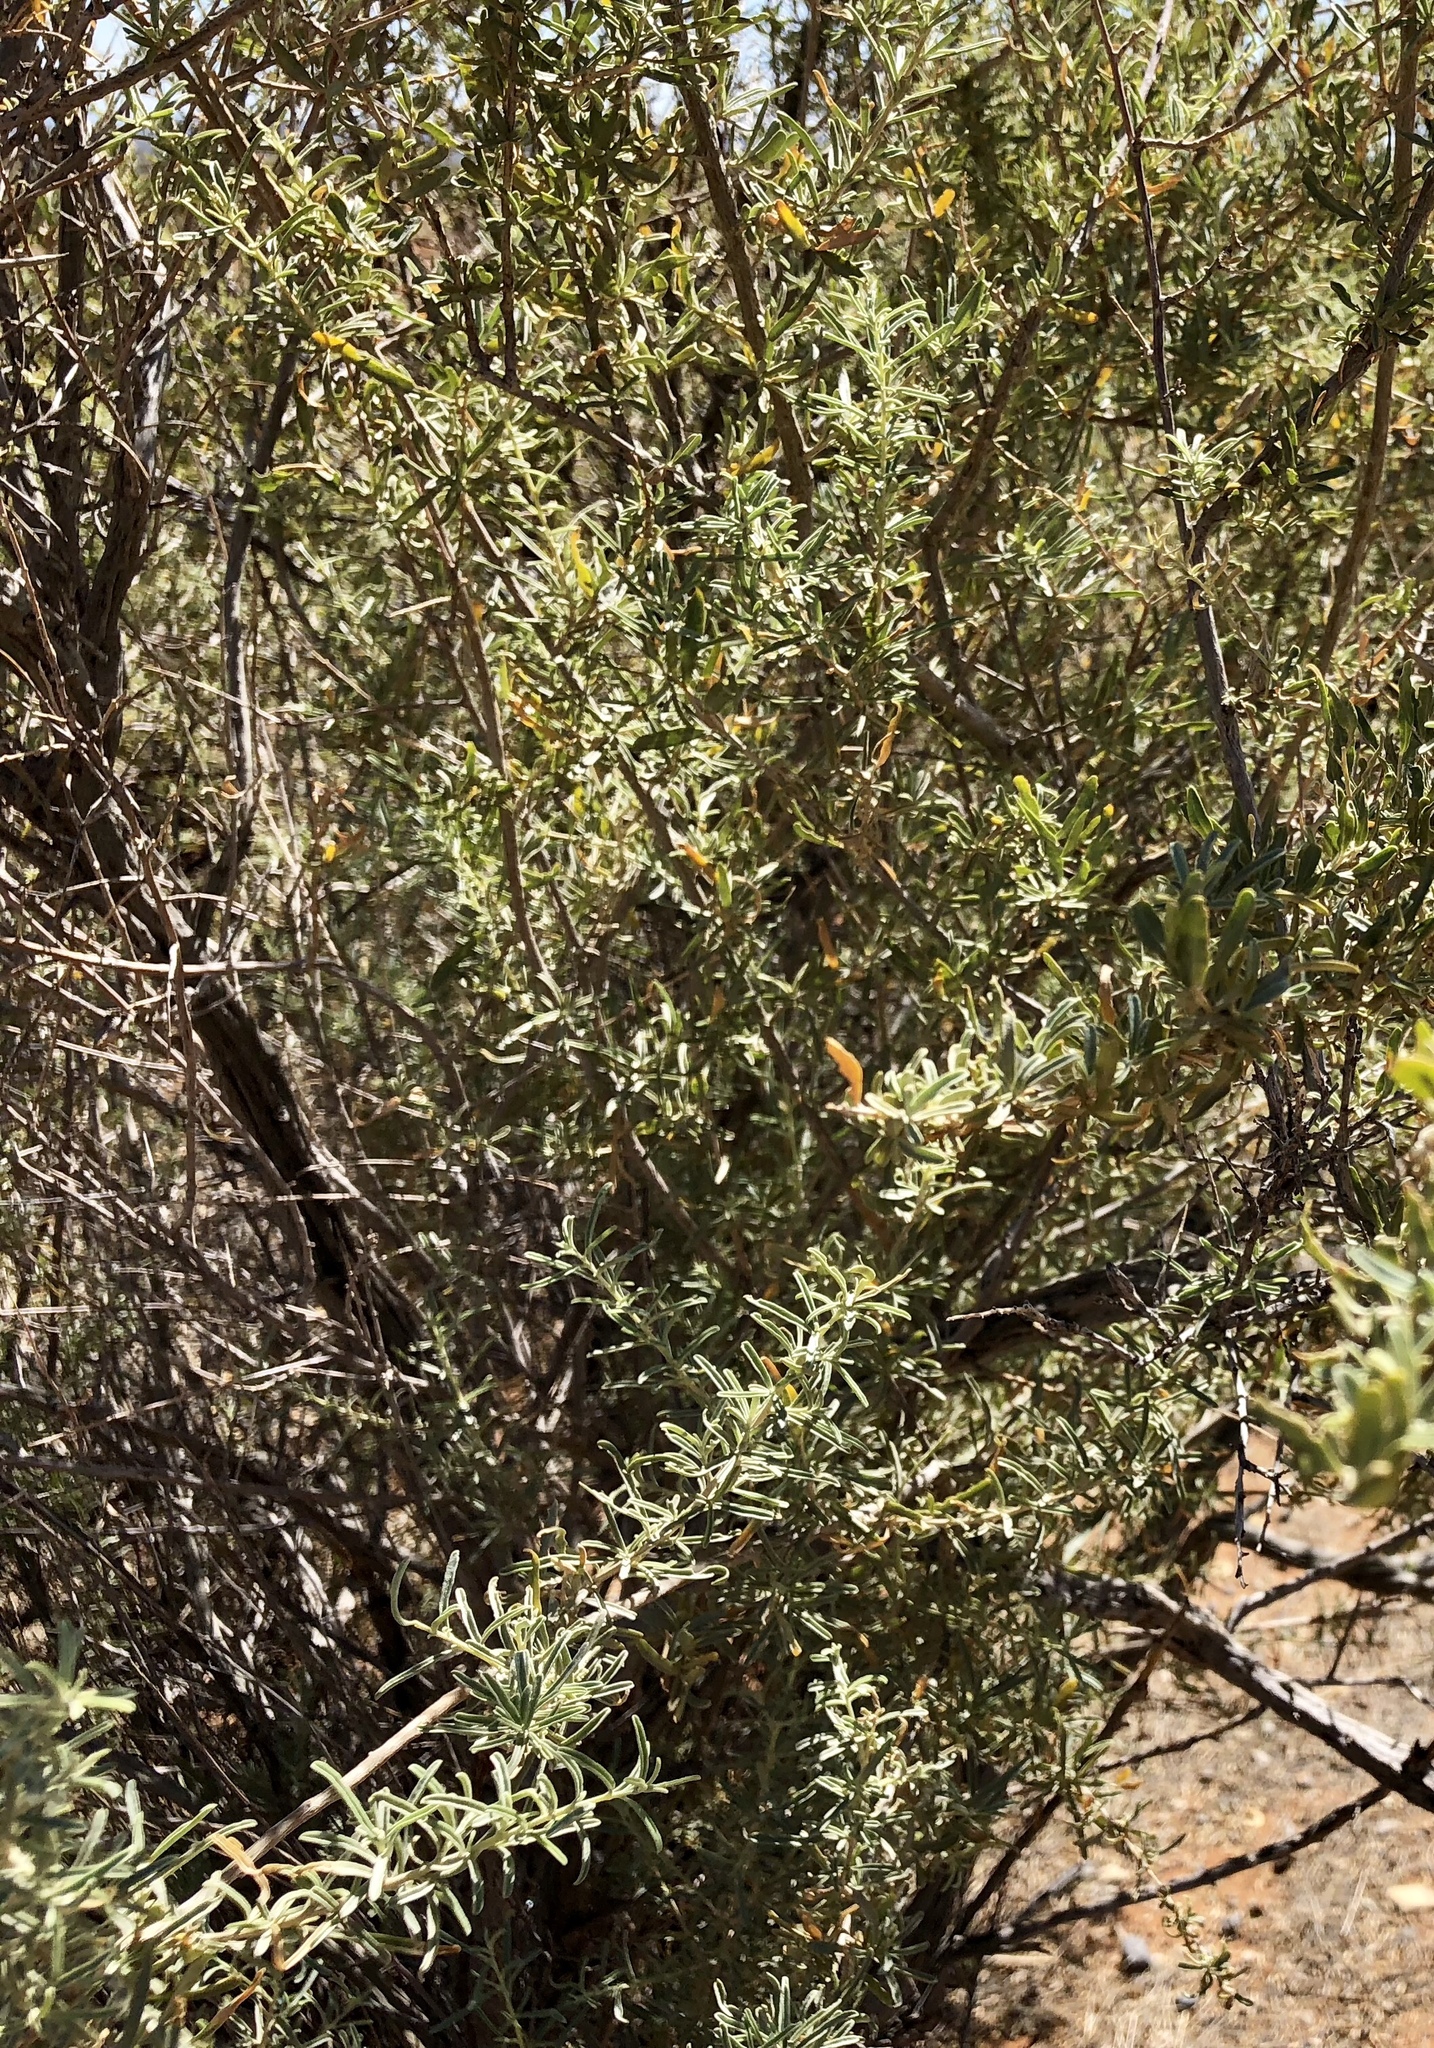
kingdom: Plantae
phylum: Tracheophyta
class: Magnoliopsida
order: Caryophyllales
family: Amaranthaceae
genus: Atriplex
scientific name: Atriplex canescens
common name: Four-wing saltbush
